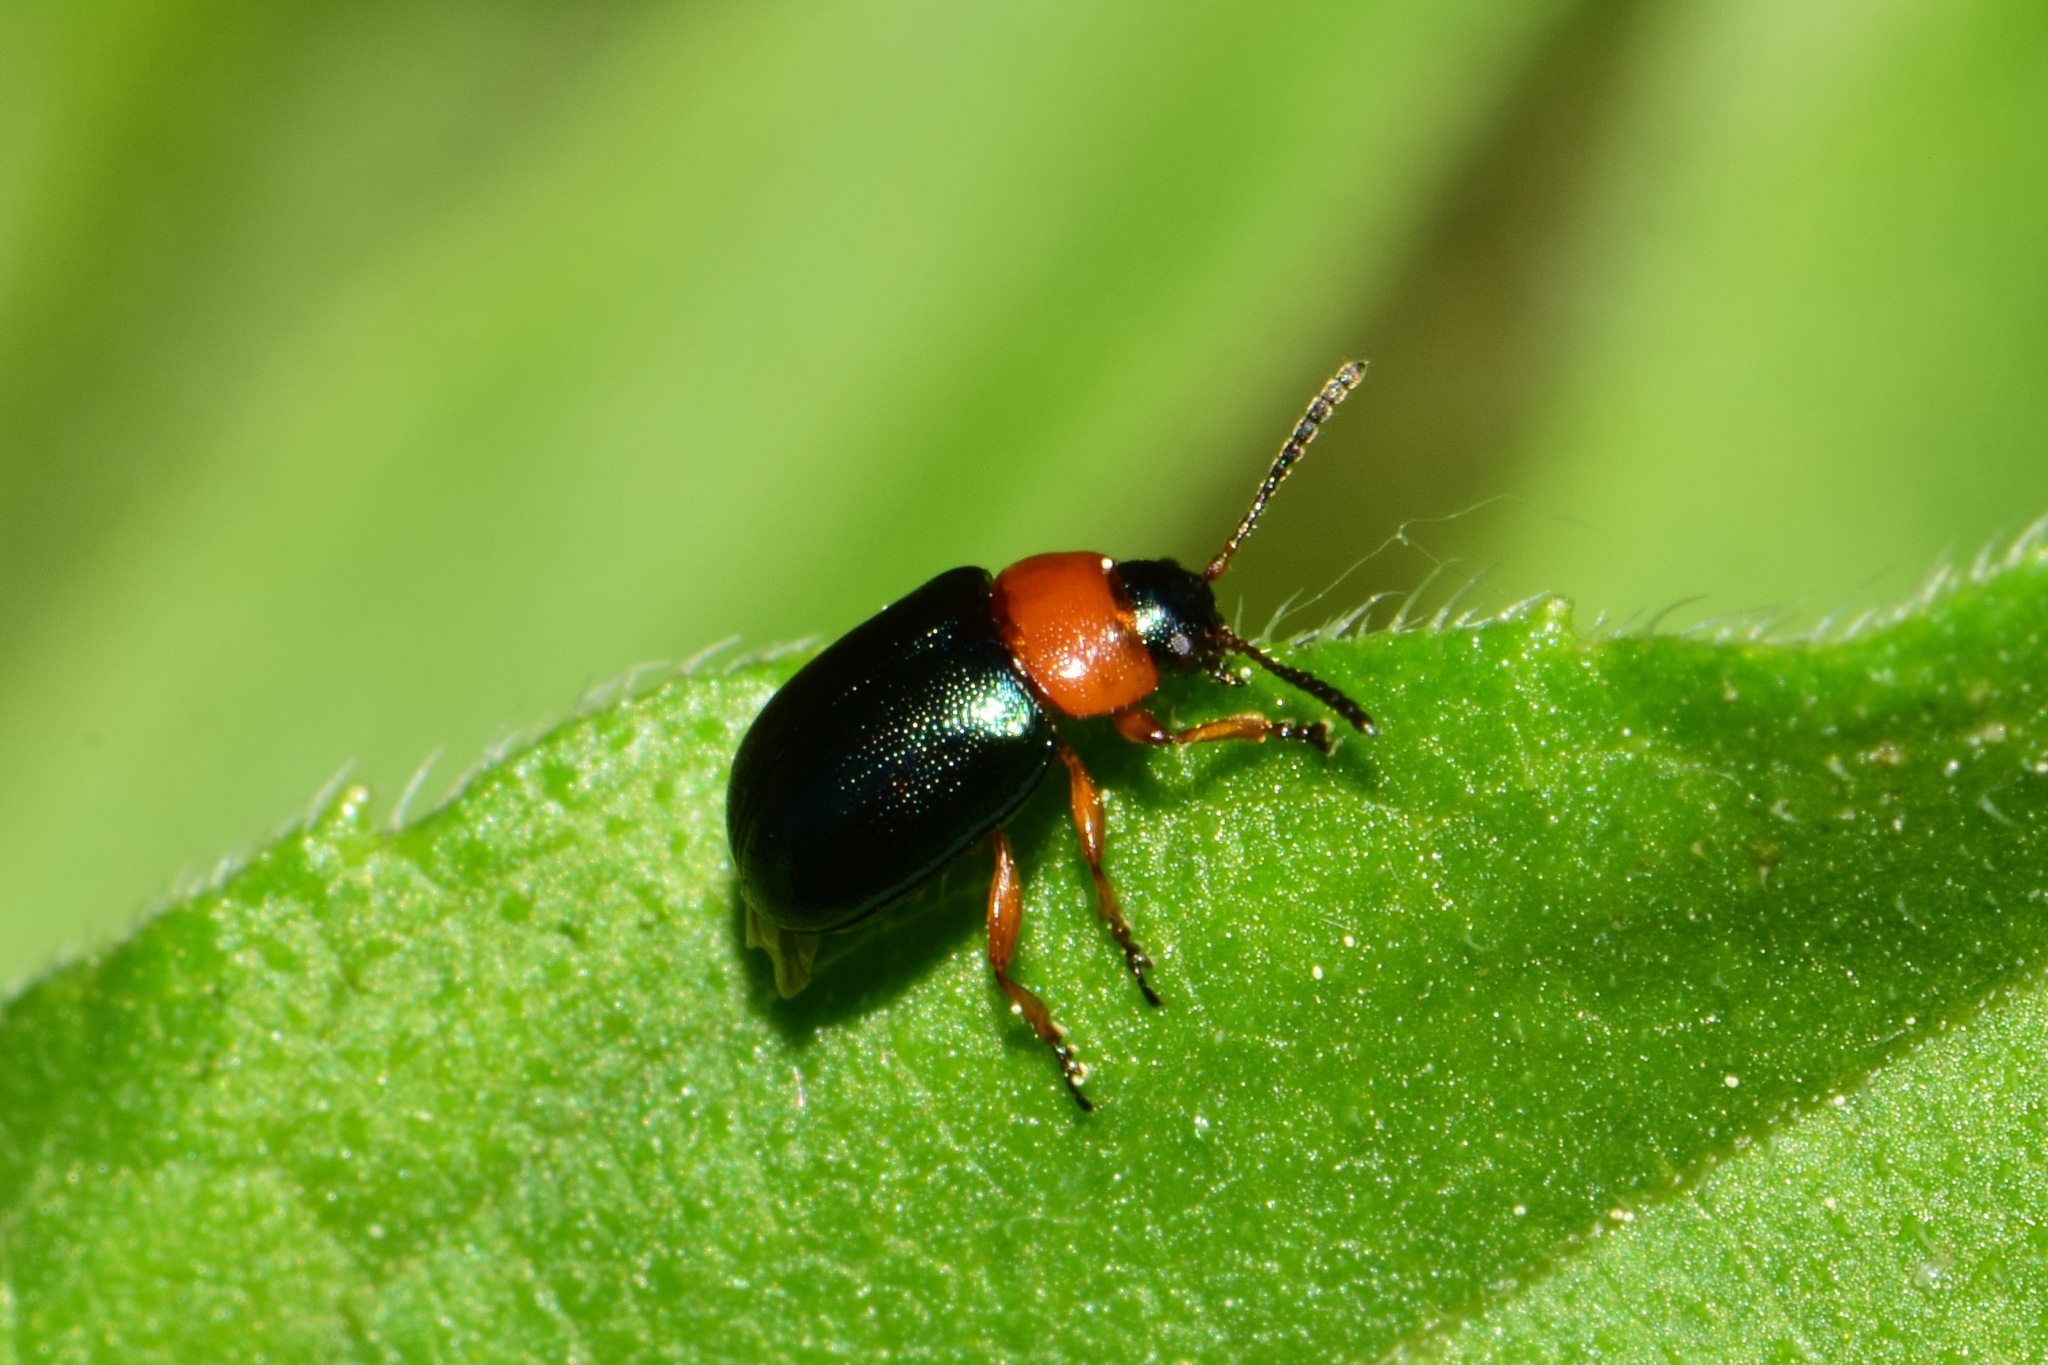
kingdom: Animalia
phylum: Arthropoda
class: Insecta
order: Coleoptera
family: Chrysomelidae
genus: Gastrophysa
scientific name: Gastrophysa polygoni
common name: Knotweed leaf beetle
